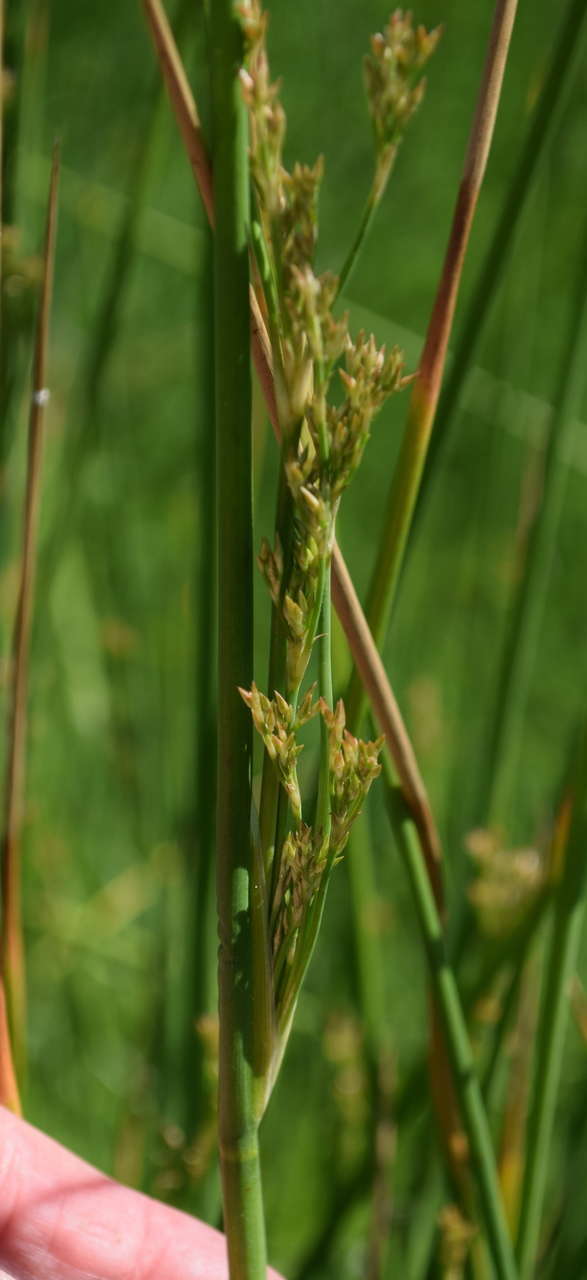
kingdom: Plantae
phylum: Tracheophyta
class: Liliopsida
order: Poales
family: Juncaceae
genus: Juncus
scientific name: Juncus pallidus
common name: Great soft-rush
